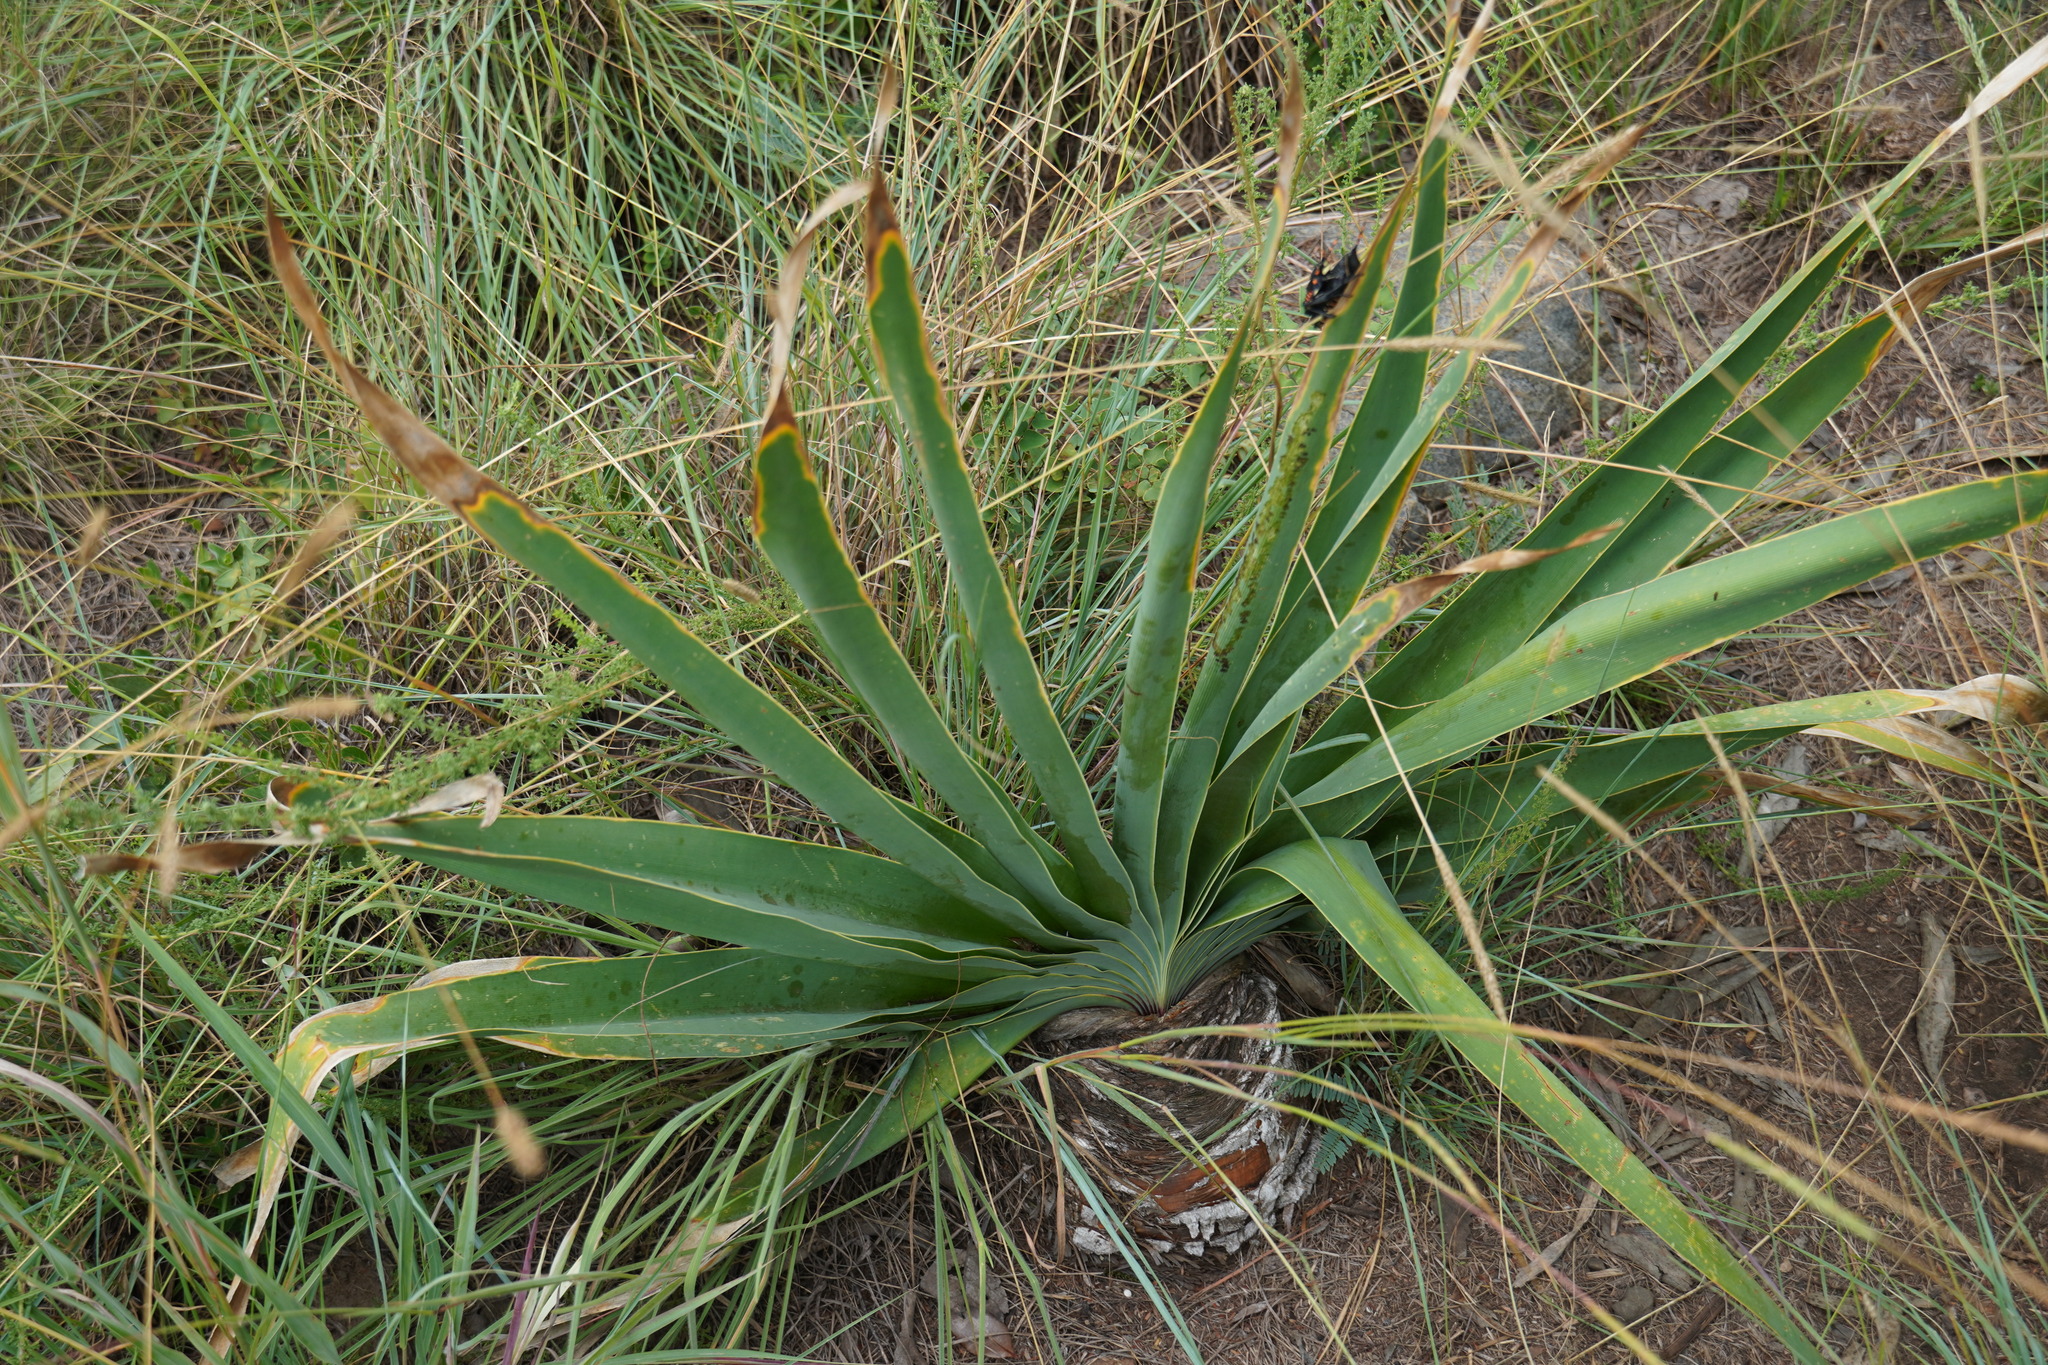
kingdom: Plantae
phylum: Tracheophyta
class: Liliopsida
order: Asparagales
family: Amaryllidaceae
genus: Boophone
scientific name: Boophone disticha
